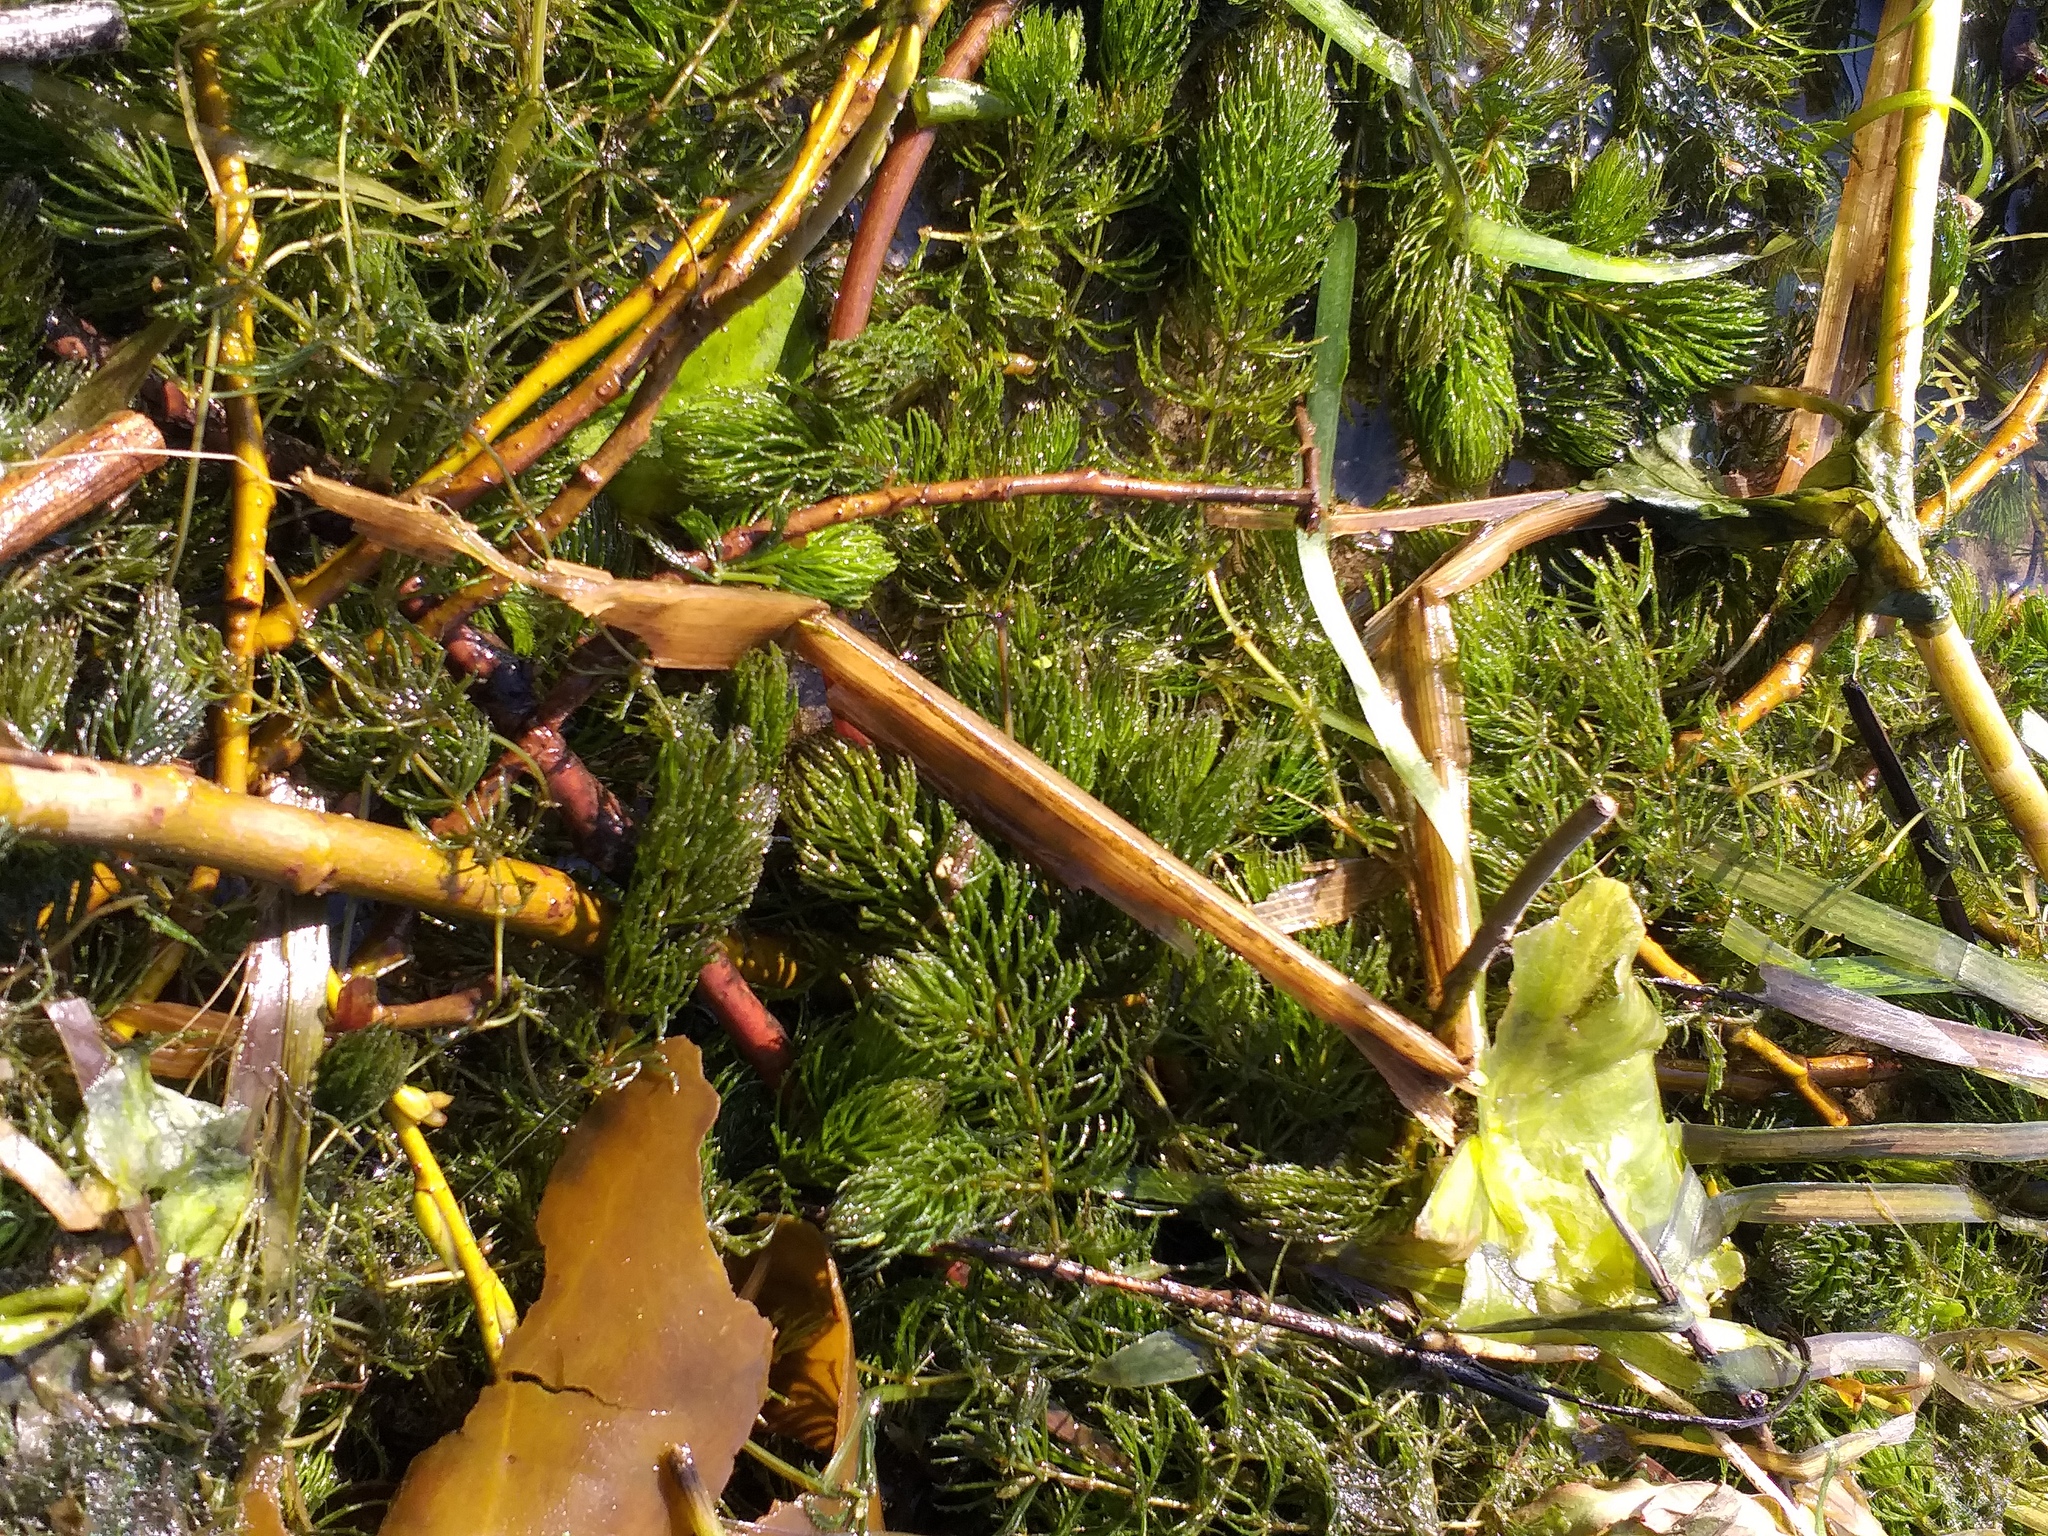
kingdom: Plantae
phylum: Tracheophyta
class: Magnoliopsida
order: Ceratophyllales
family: Ceratophyllaceae
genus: Ceratophyllum
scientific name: Ceratophyllum demersum
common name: Rigid hornwort
